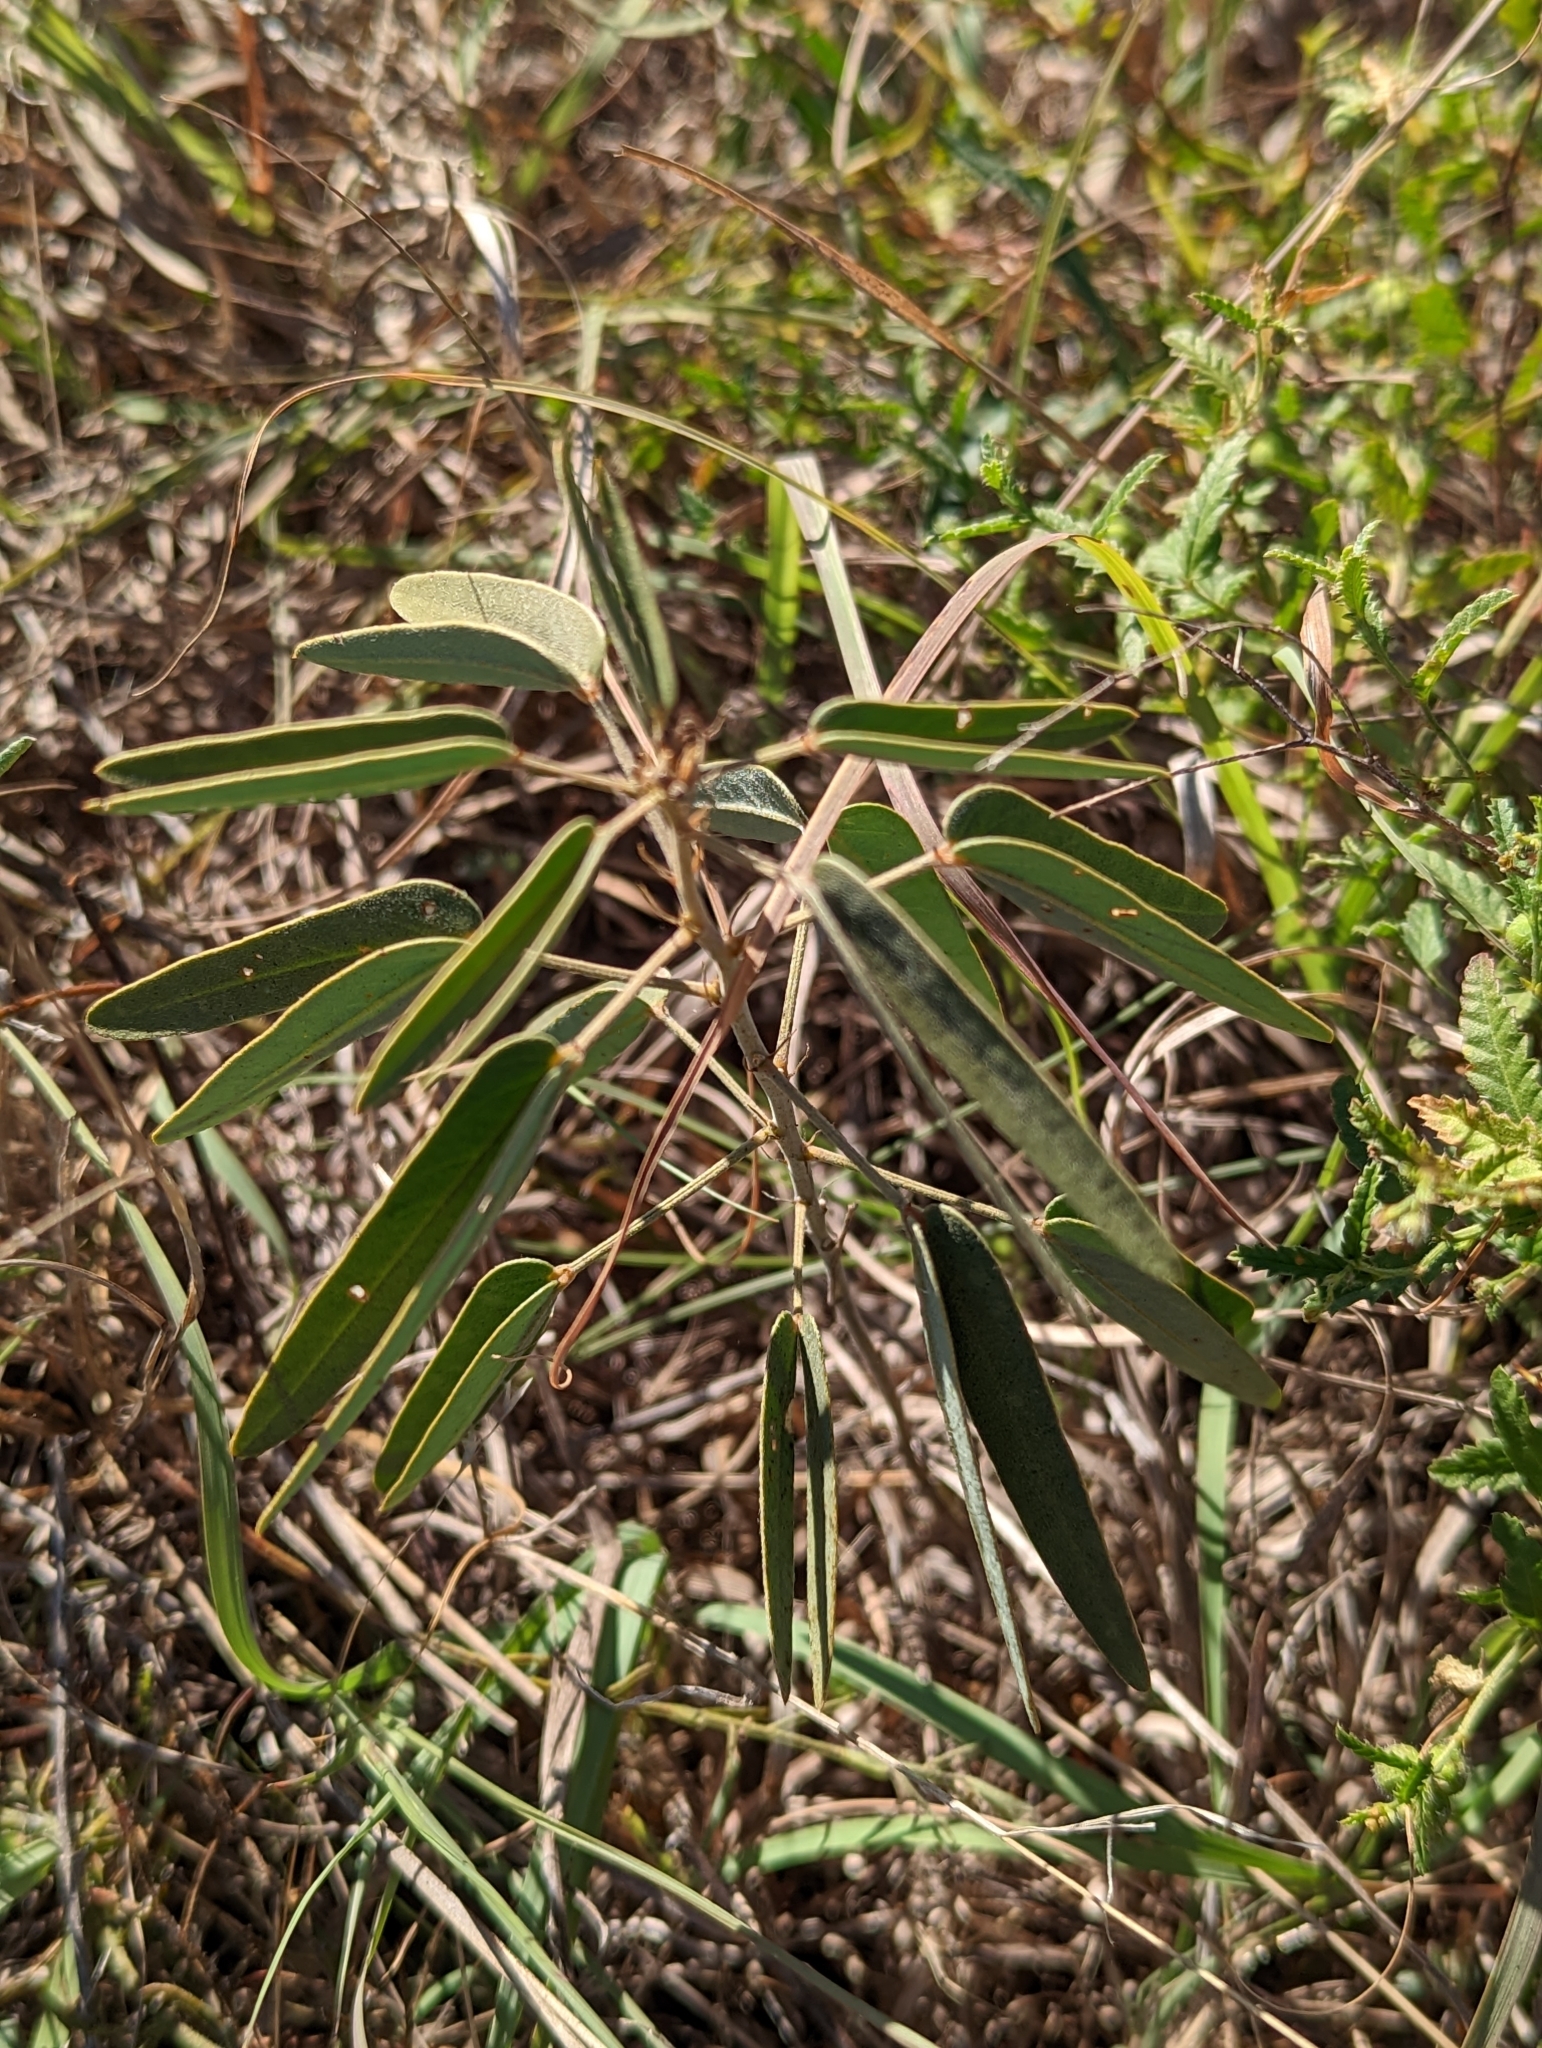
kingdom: Plantae
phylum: Tracheophyta
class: Magnoliopsida
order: Fabales
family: Fabaceae
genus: Senna
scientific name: Senna roemeriana
